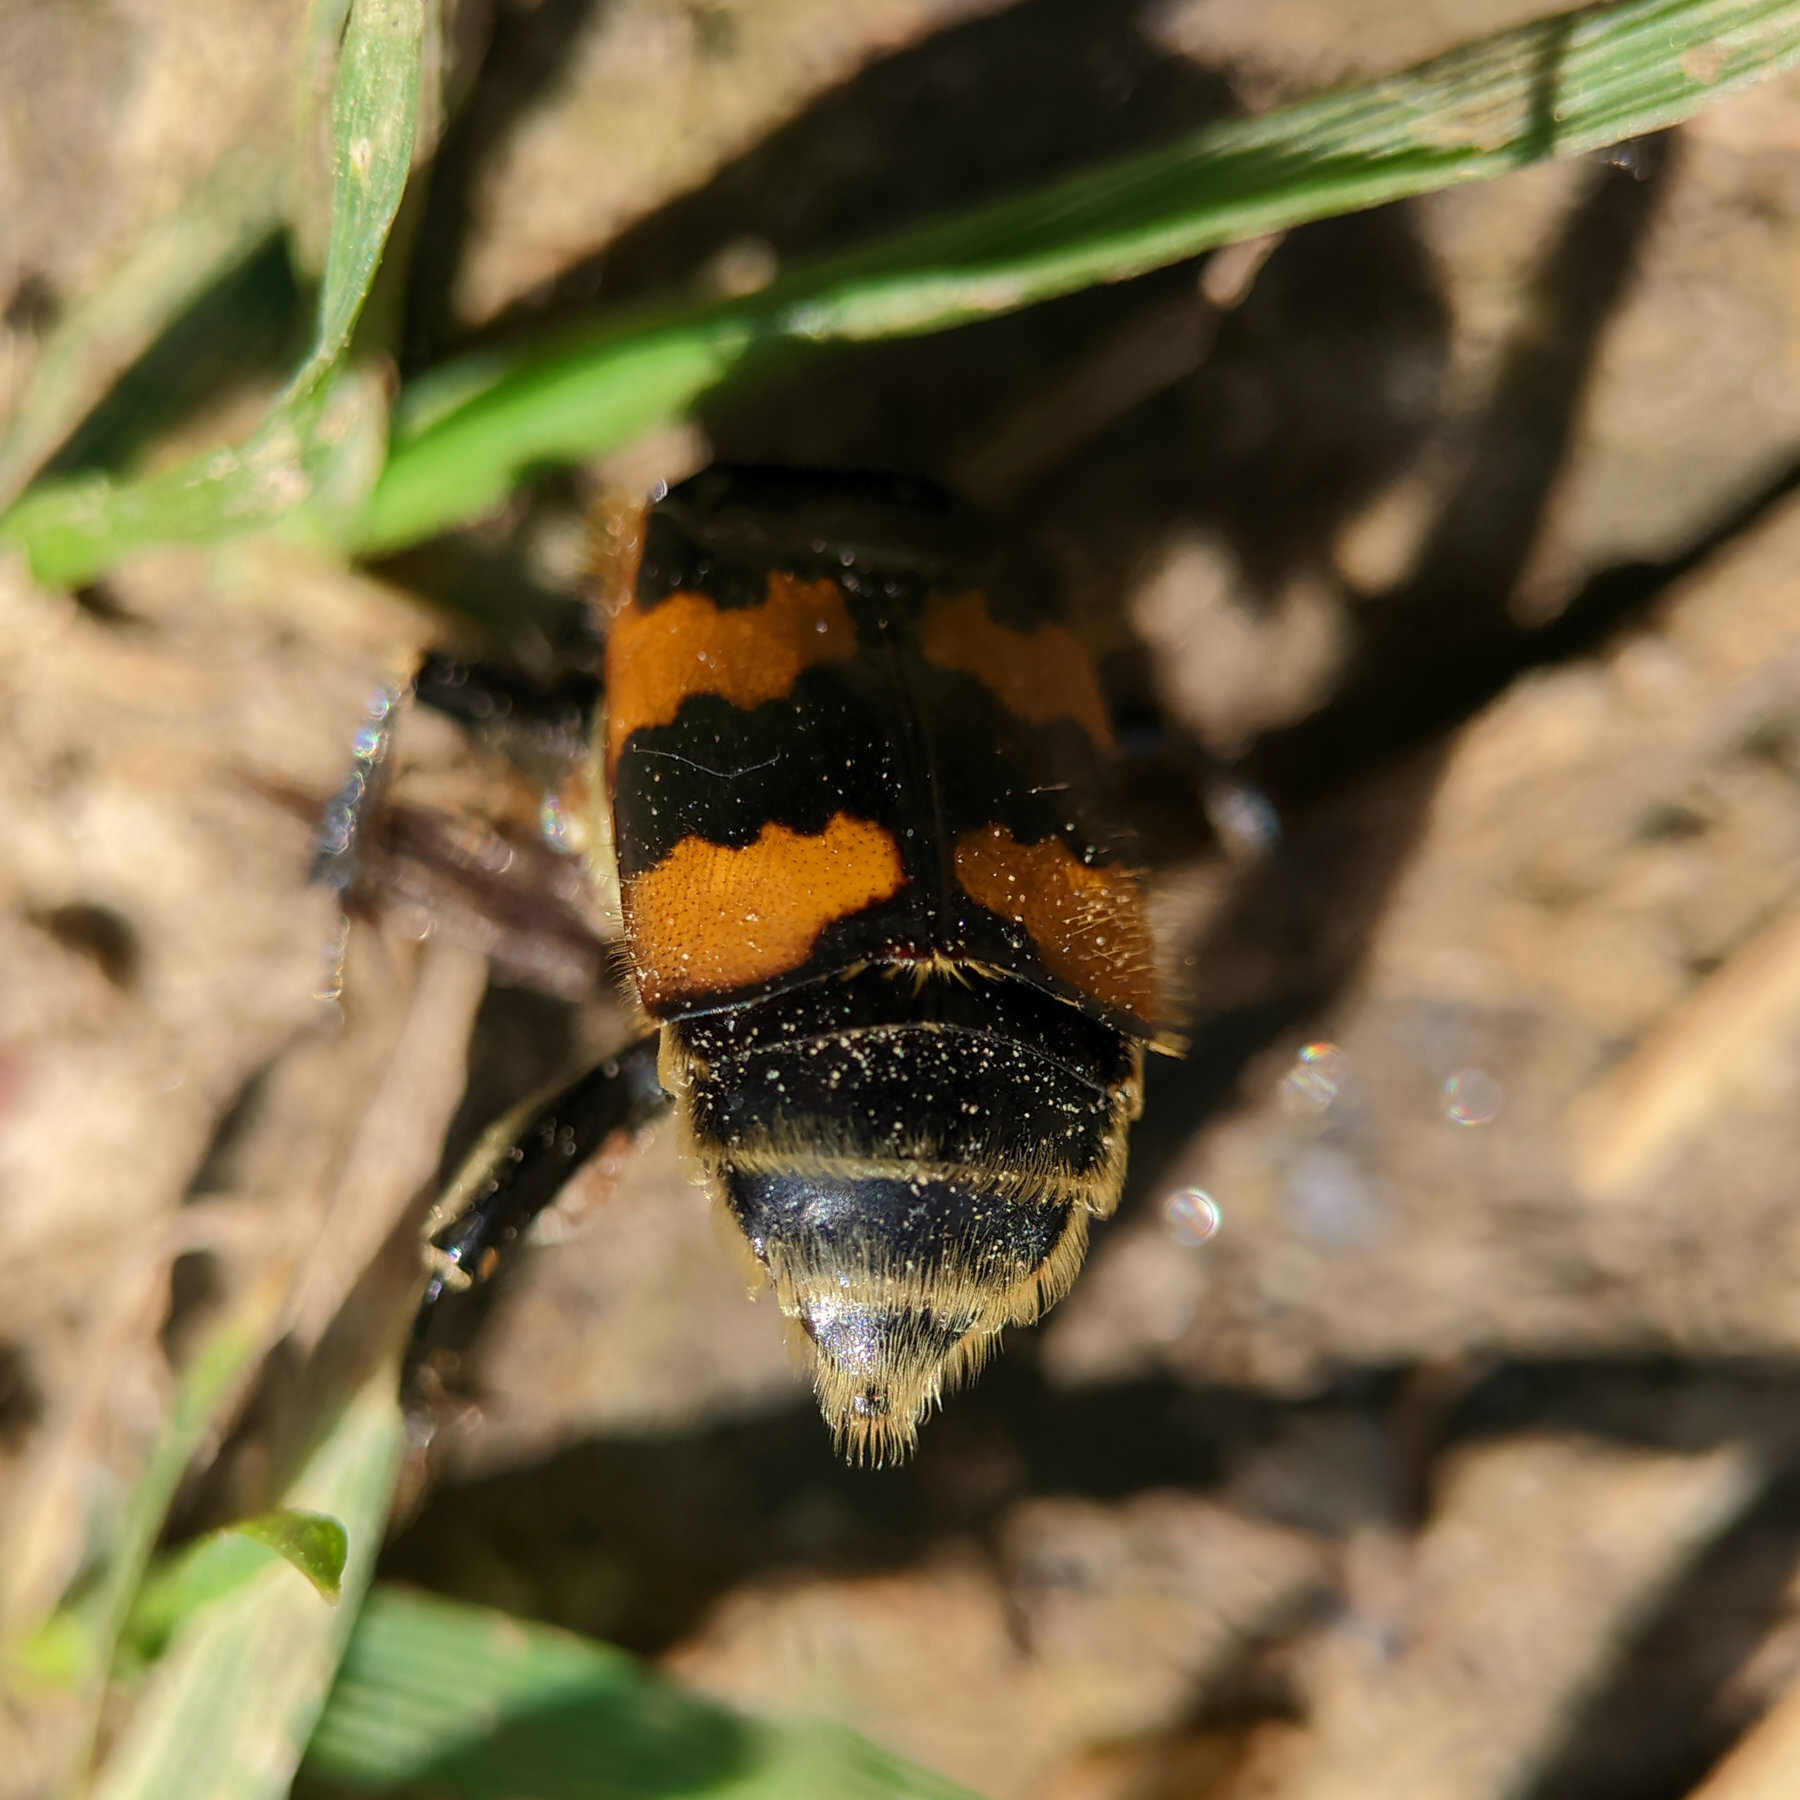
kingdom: Animalia
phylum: Arthropoda
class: Insecta
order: Coleoptera
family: Staphylinidae
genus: Nicrophorus
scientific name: Nicrophorus vespillo
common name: Common burying beetle
